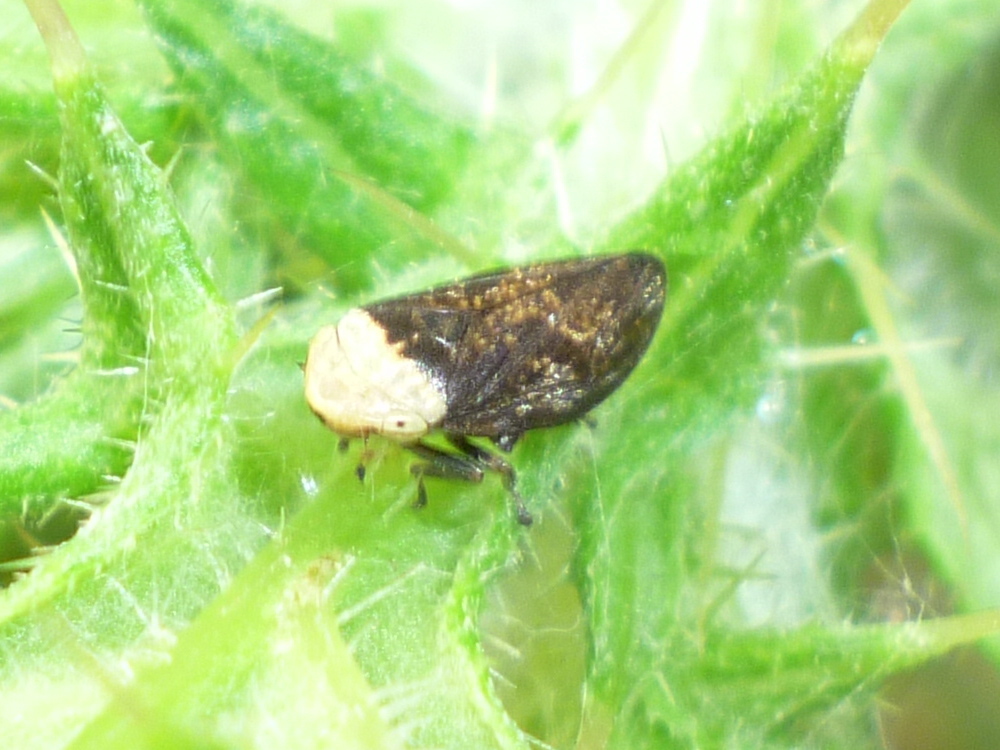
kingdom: Animalia
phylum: Arthropoda
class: Insecta
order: Hemiptera
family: Aphrophoridae
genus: Philaenus
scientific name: Philaenus spumarius
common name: Meadow spittlebug
